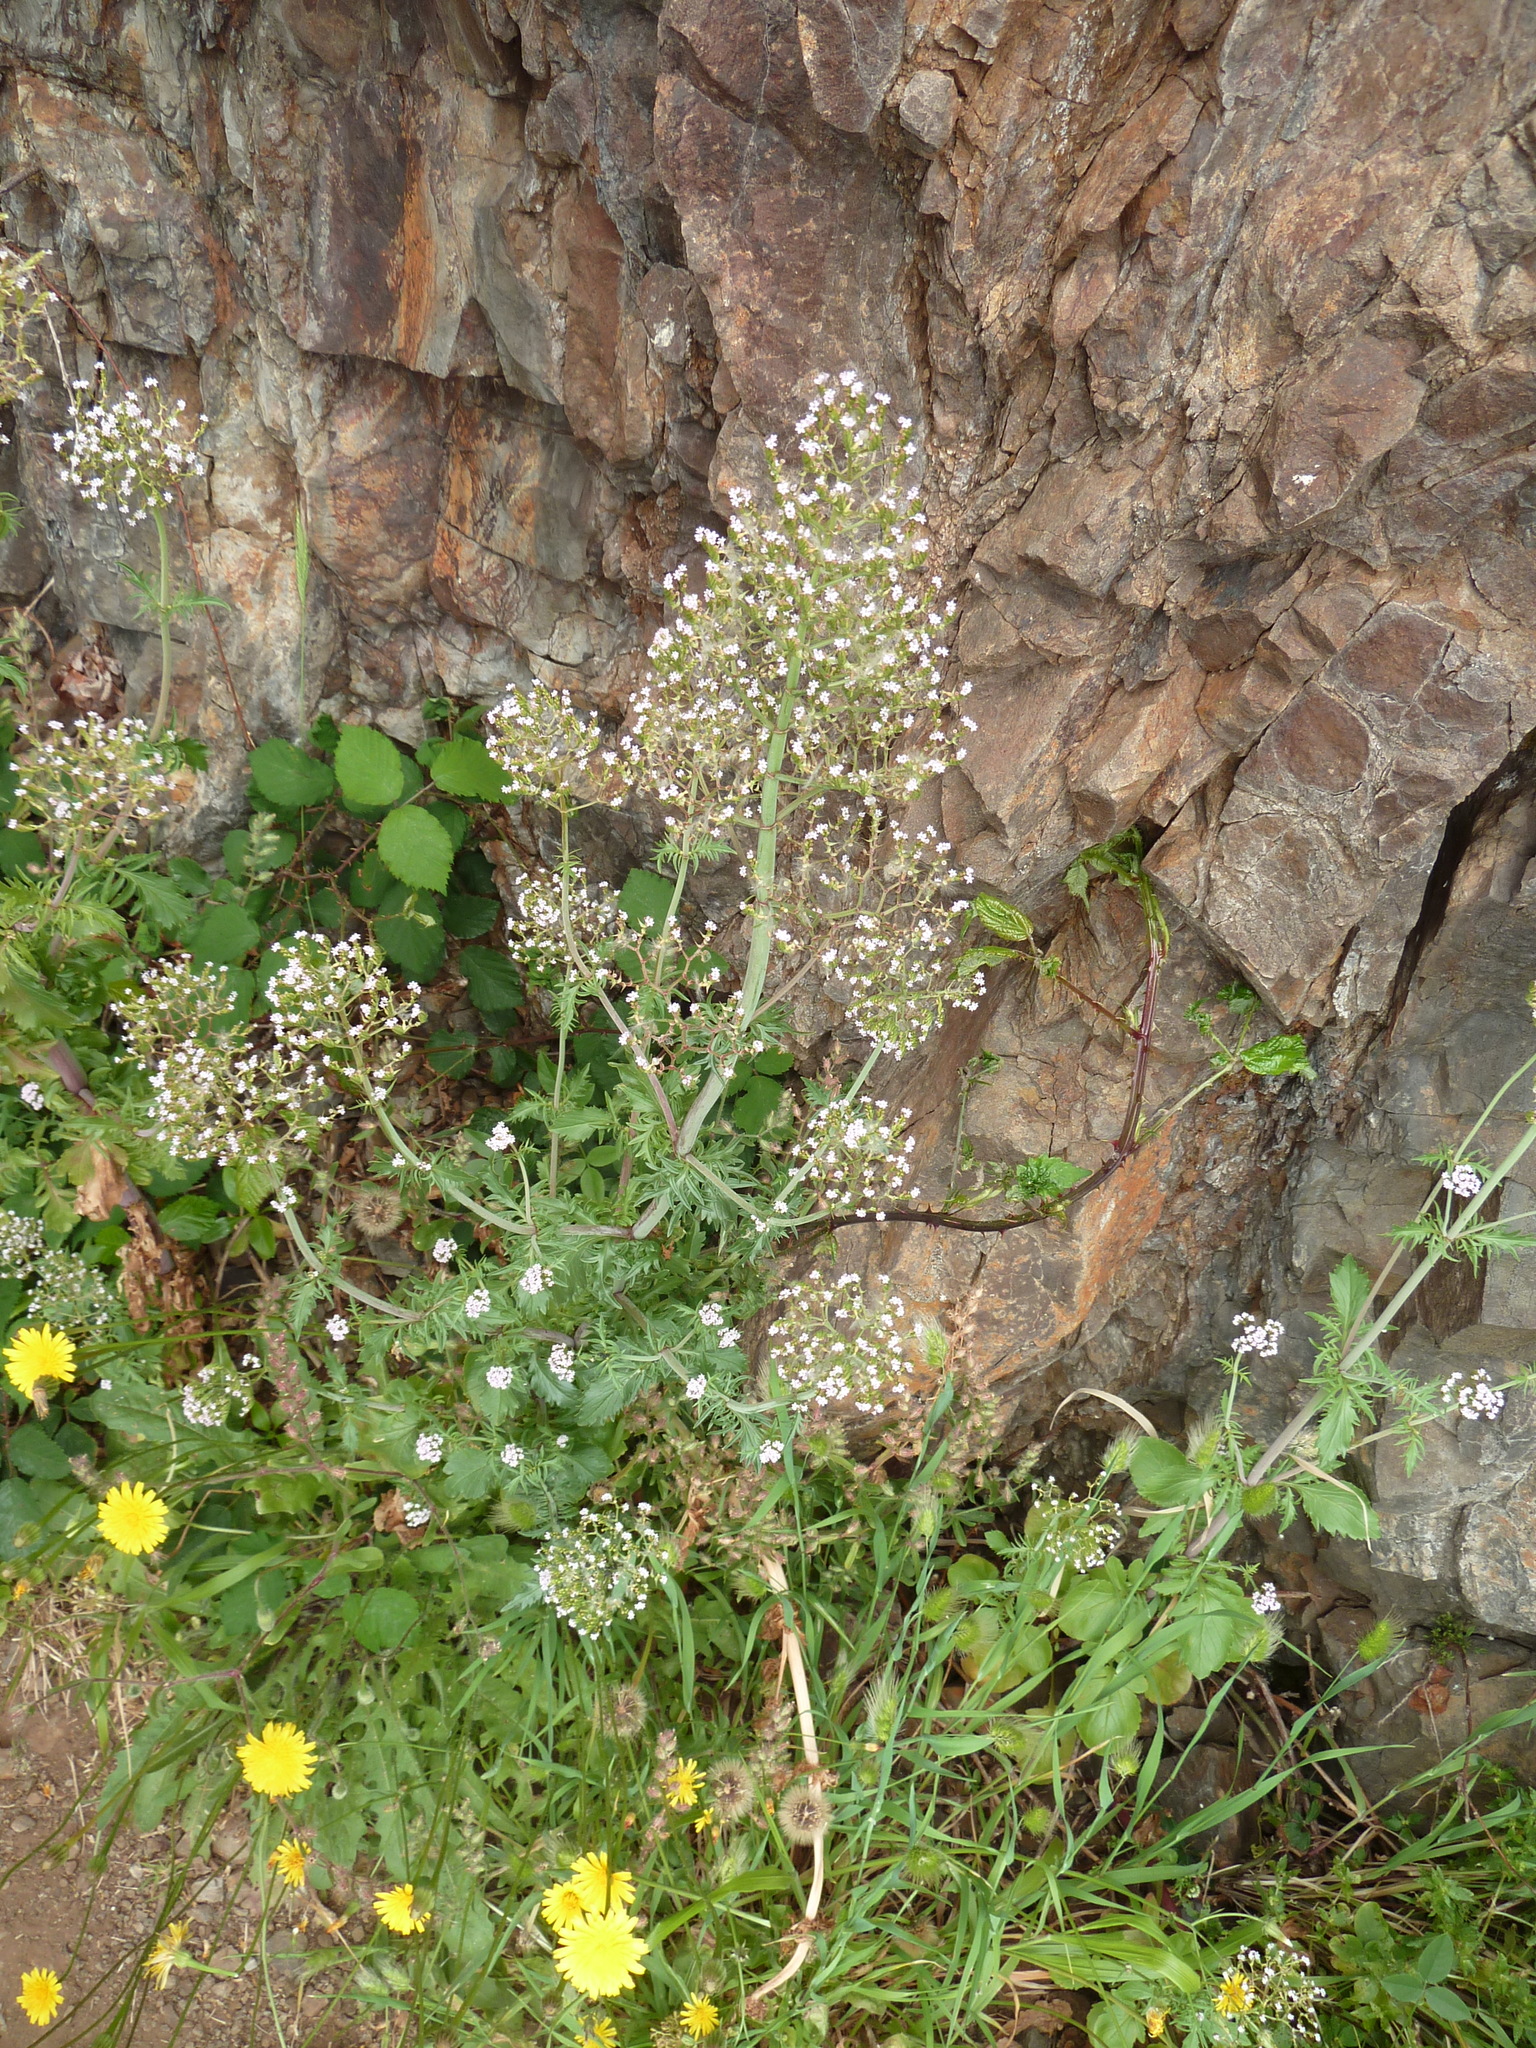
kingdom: Plantae
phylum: Tracheophyta
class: Magnoliopsida
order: Dipsacales
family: Caprifoliaceae
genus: Centranthus
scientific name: Centranthus calcitrapae
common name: Annual valerian
